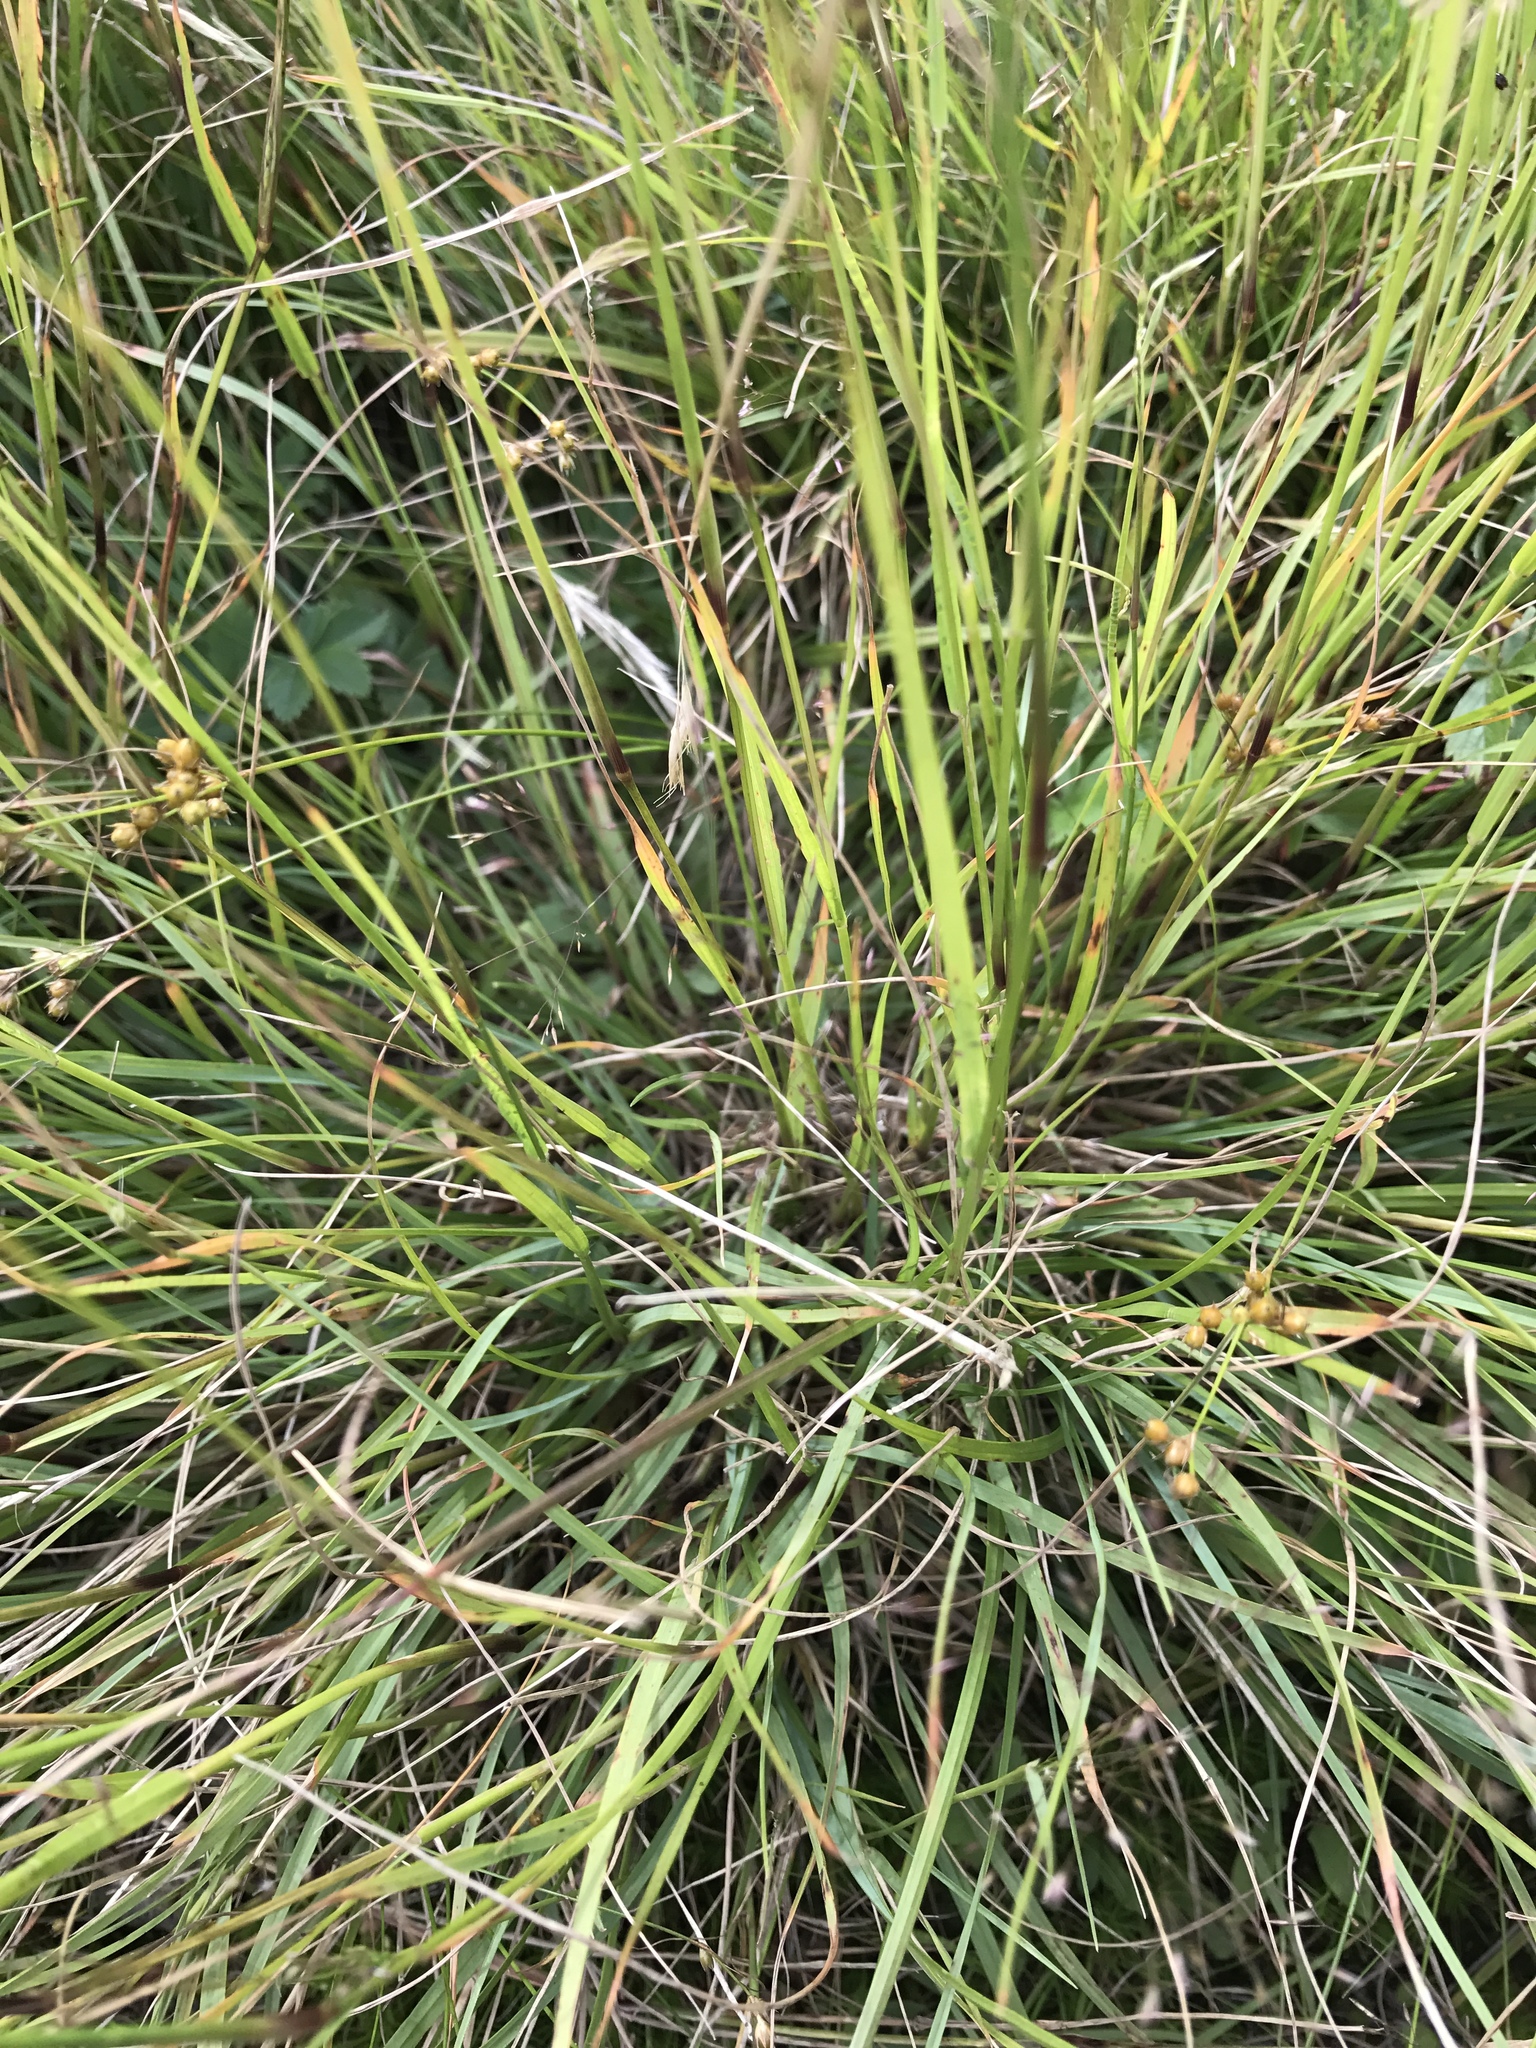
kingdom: Plantae
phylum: Tracheophyta
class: Liliopsida
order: Poales
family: Poaceae
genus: Danthonia
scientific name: Danthonia compressa
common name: Flat-stem oat grass
